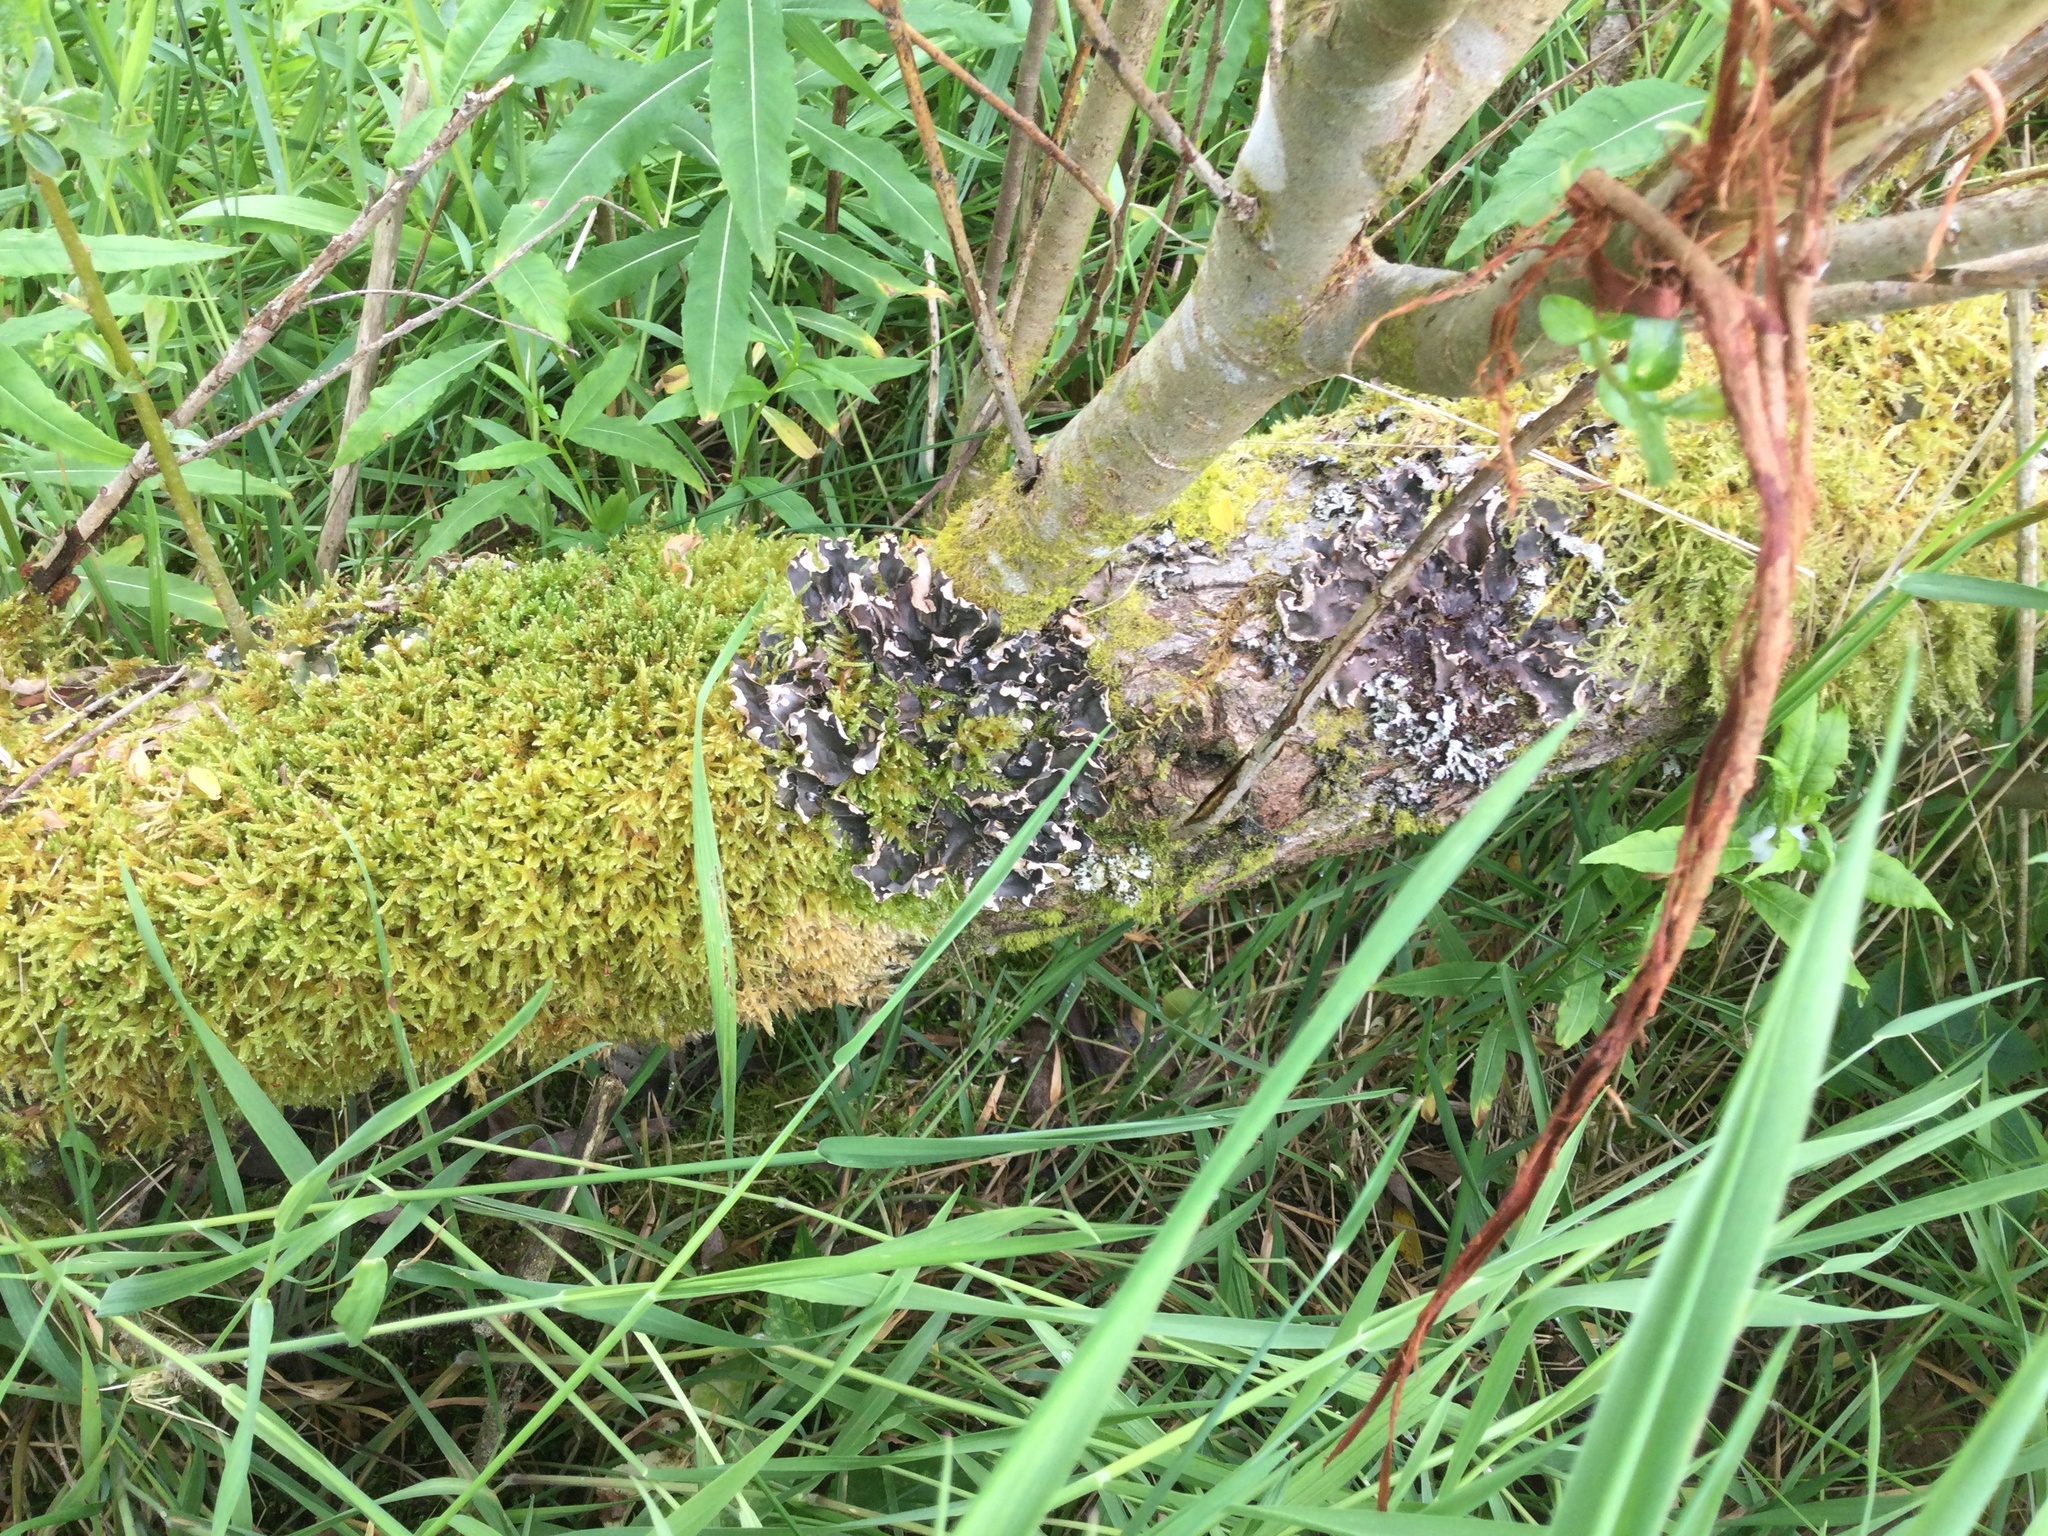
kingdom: Plantae
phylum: Tracheophyta
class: Magnoliopsida
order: Gentianales
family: Rubiaceae
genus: Galium
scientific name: Galium verum
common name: Lady's bedstraw
